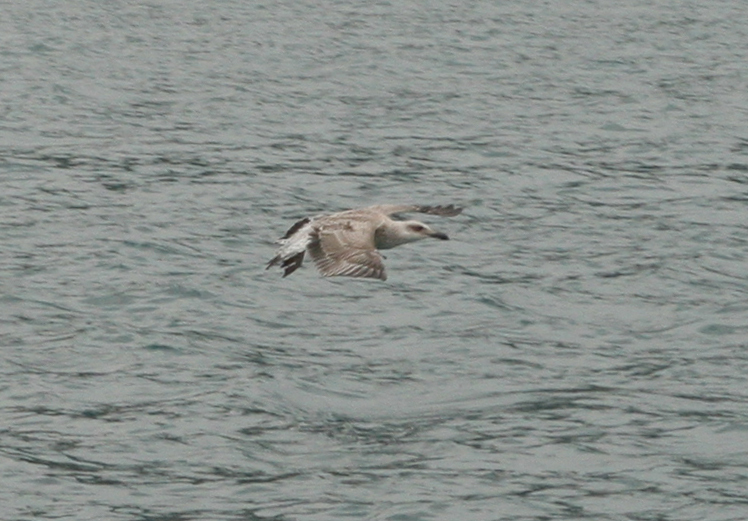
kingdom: Animalia
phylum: Chordata
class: Aves
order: Charadriiformes
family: Laridae
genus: Larus
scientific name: Larus michahellis
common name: Yellow-legged gull
